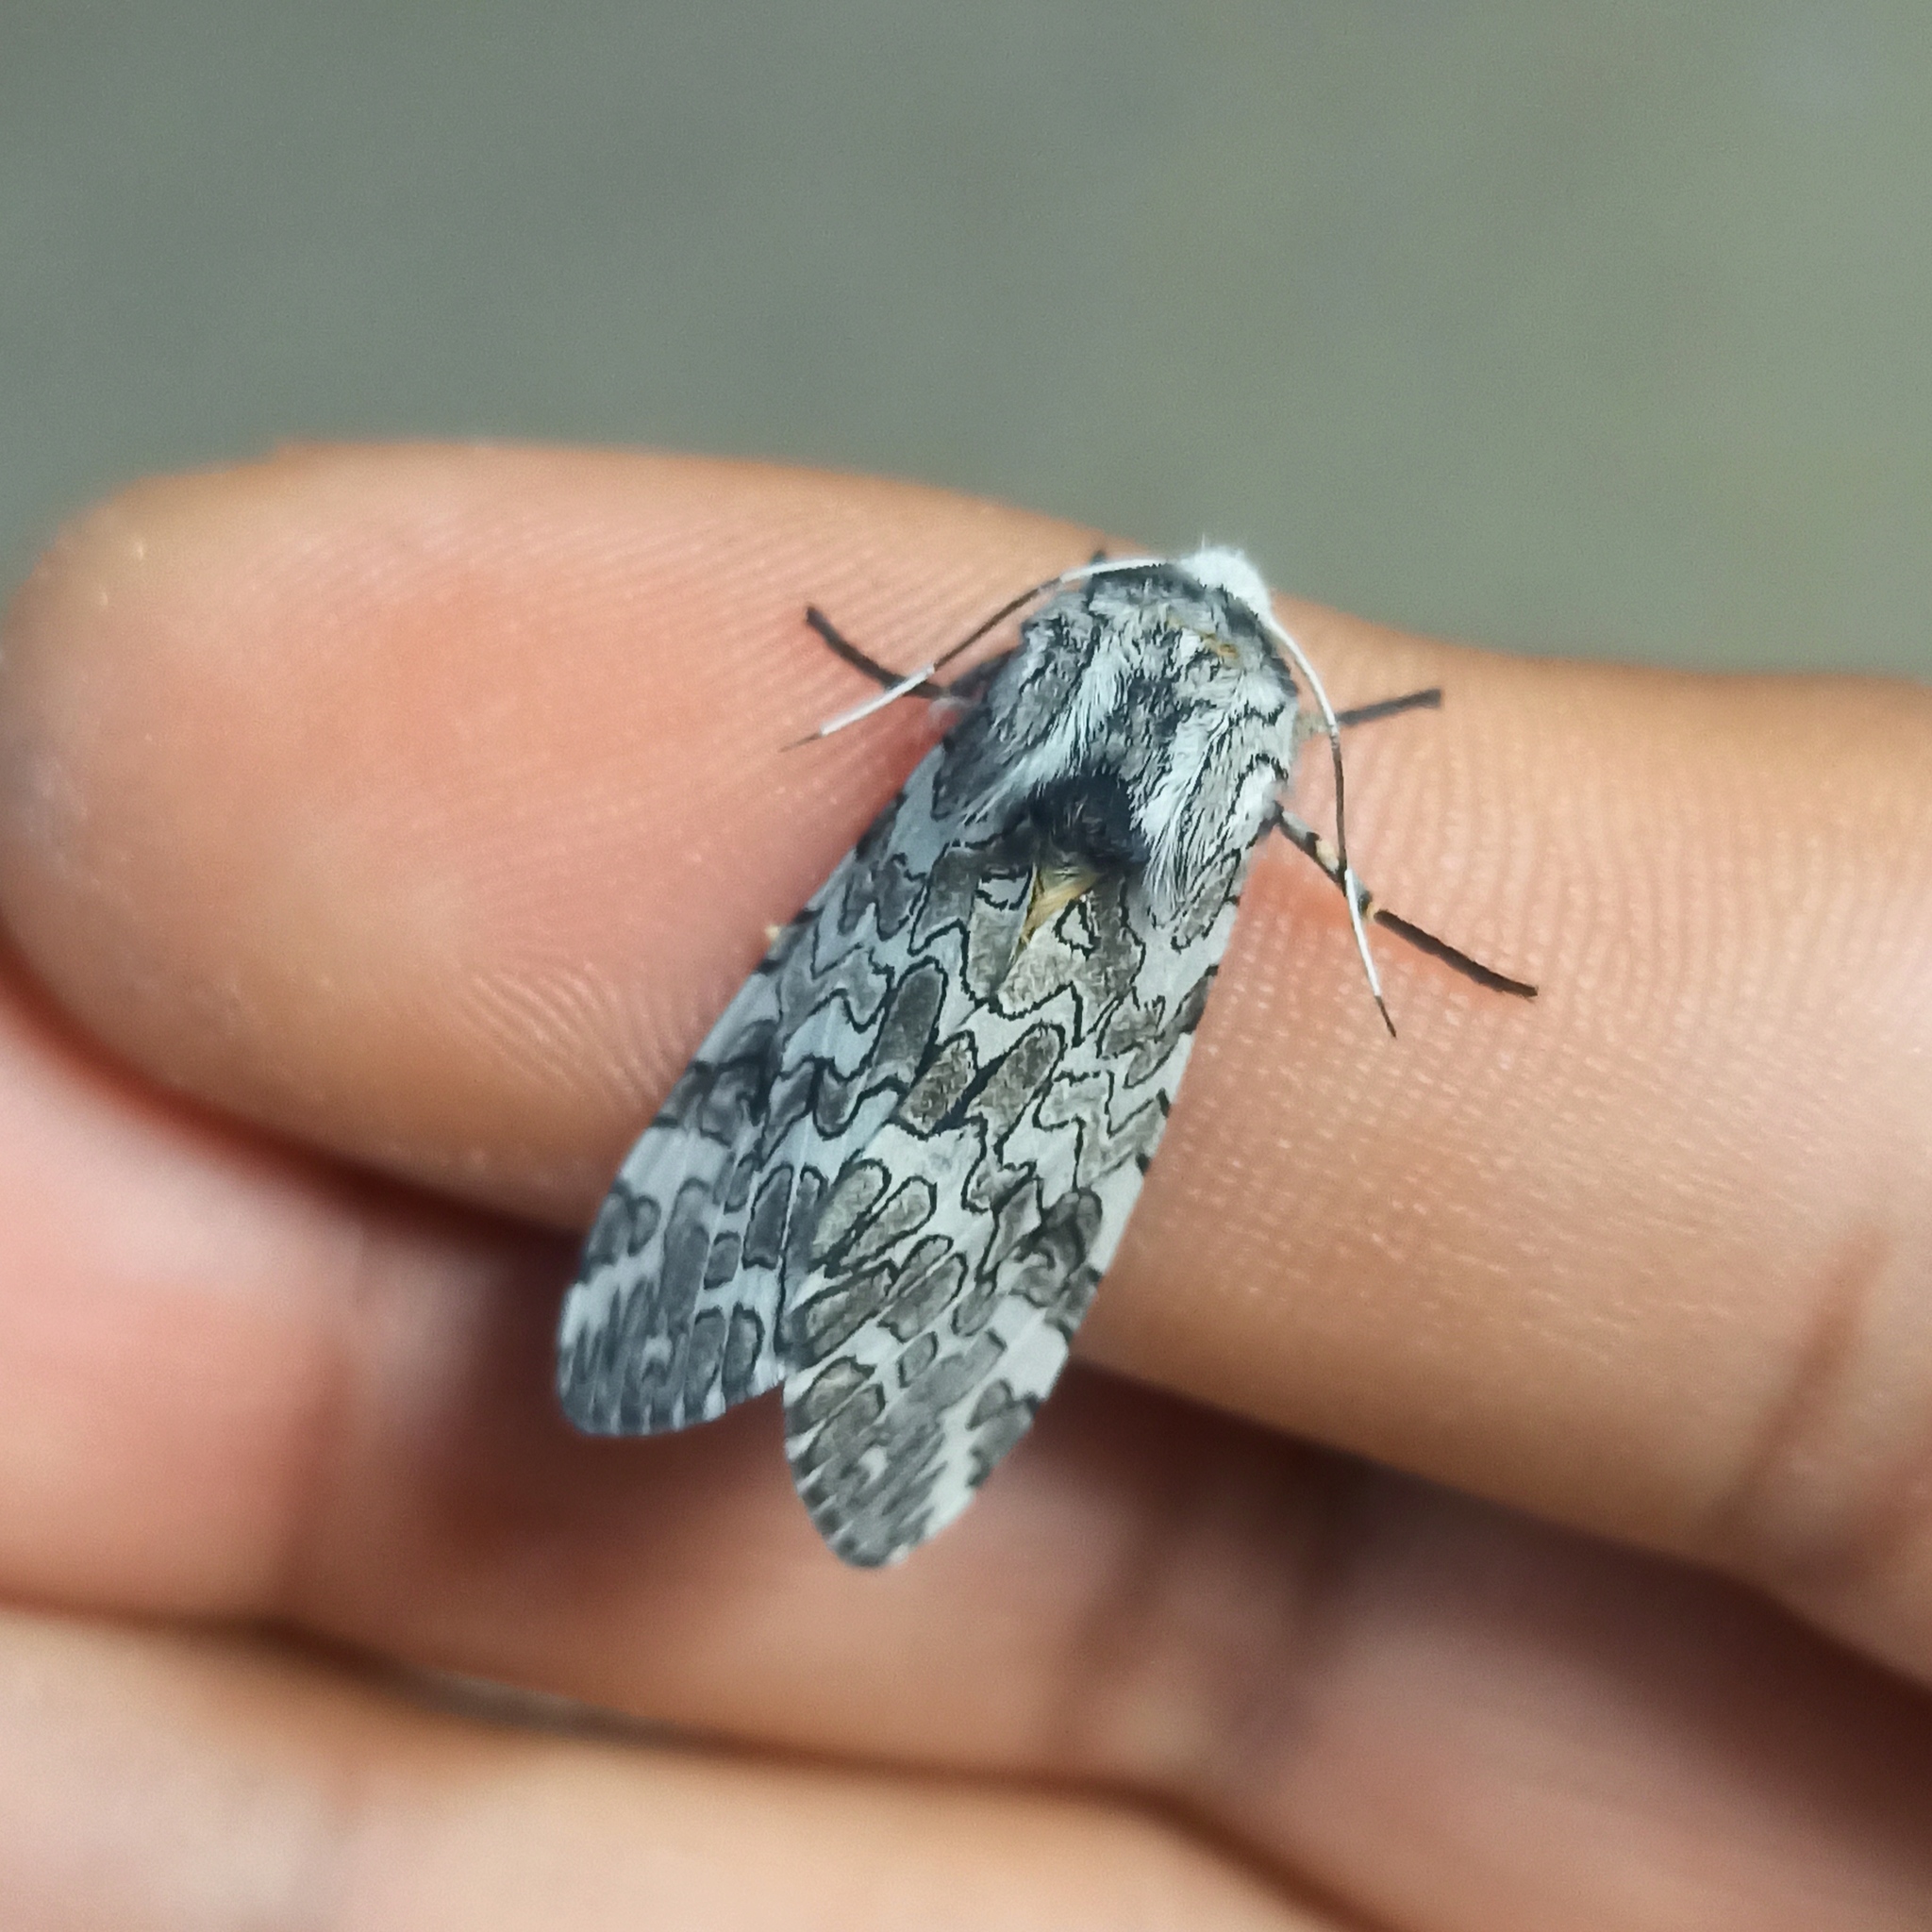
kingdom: Animalia
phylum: Arthropoda
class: Insecta
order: Lepidoptera
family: Erebidae
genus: Hypercompe
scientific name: Hypercompe suffusa
